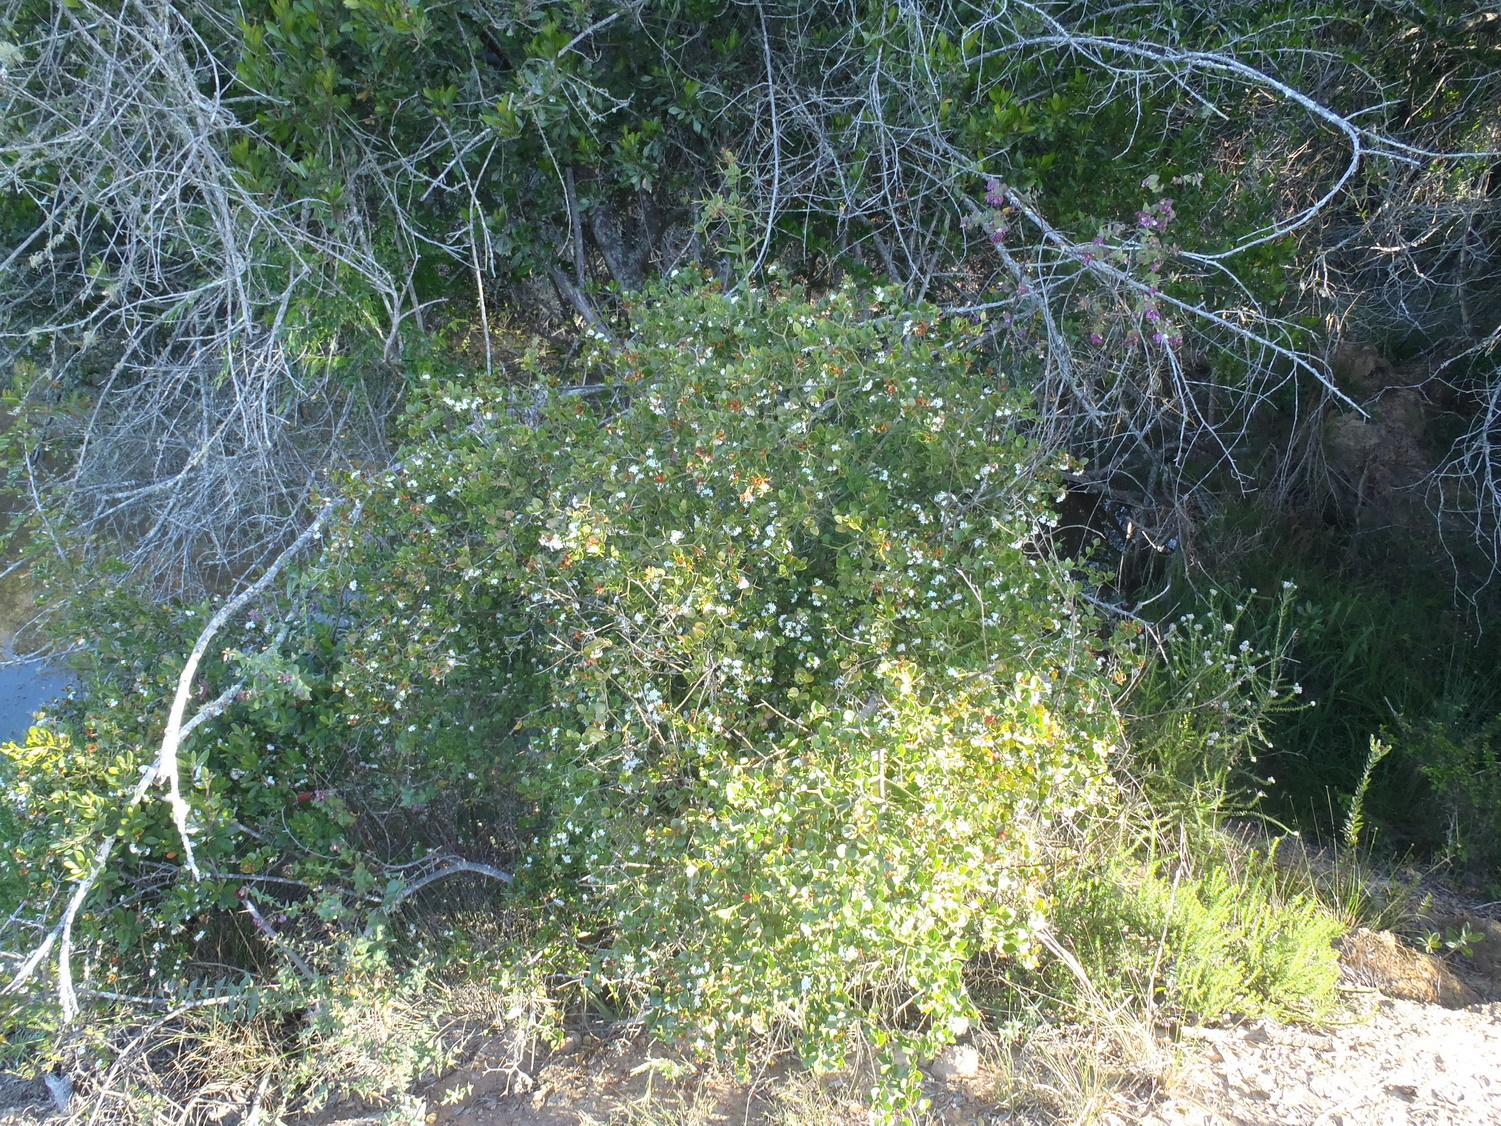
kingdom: Plantae
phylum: Tracheophyta
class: Magnoliopsida
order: Gentianales
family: Apocynaceae
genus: Carissa
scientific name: Carissa bispinosa
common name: Forest num-num
